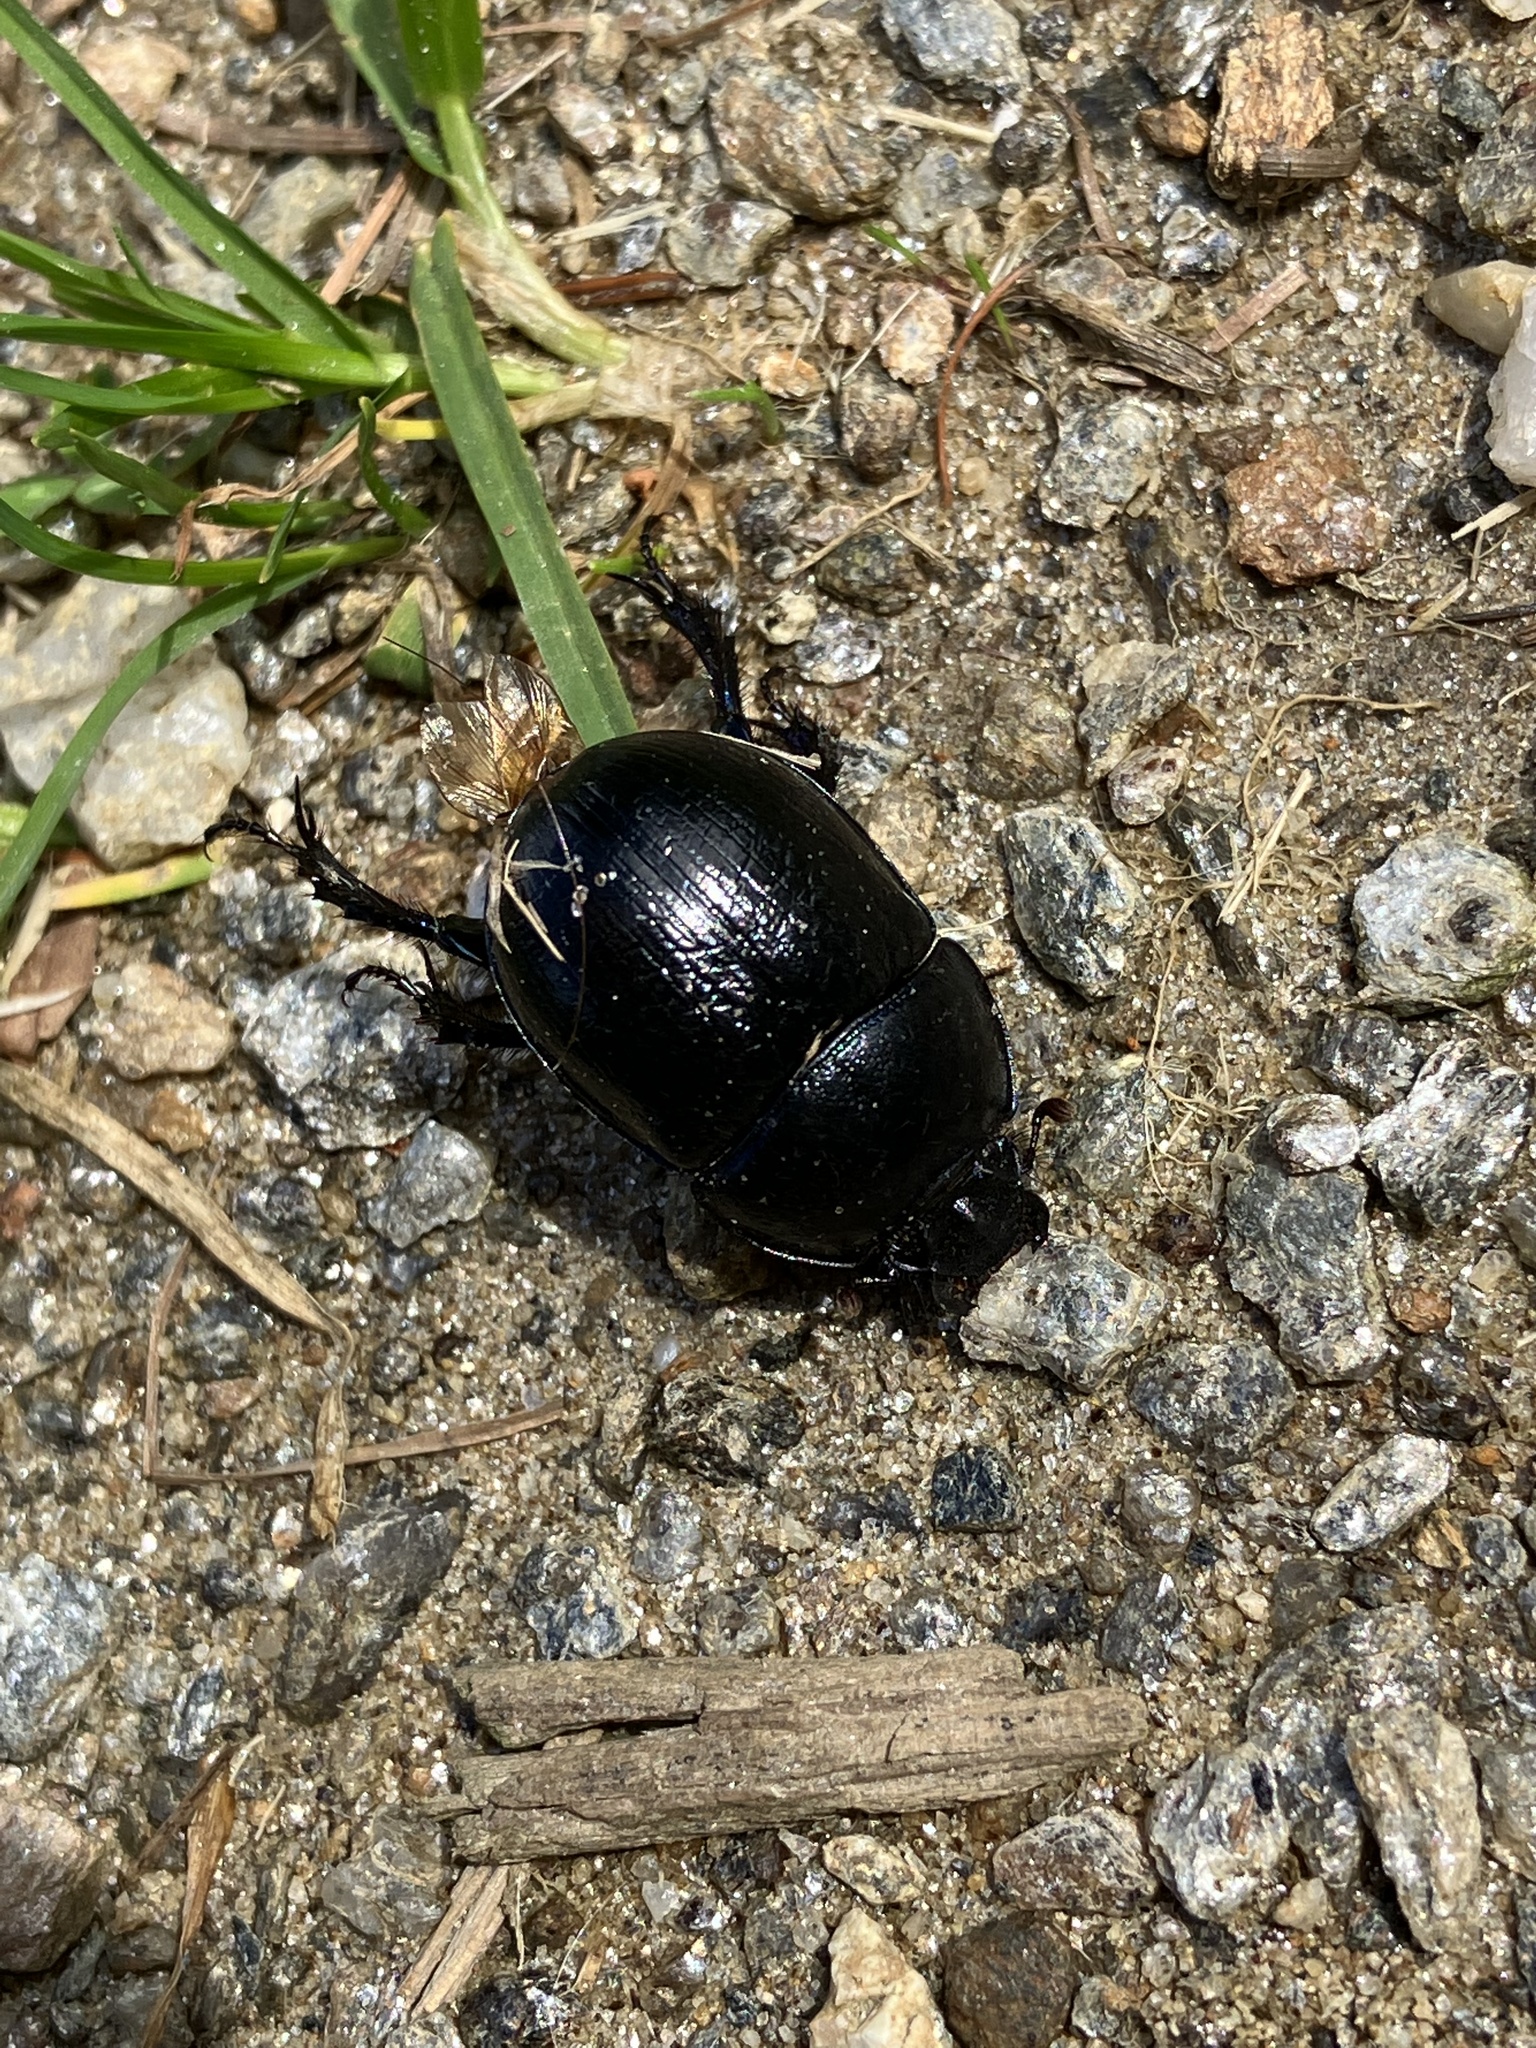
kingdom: Animalia
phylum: Arthropoda
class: Insecta
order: Coleoptera
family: Geotrupidae
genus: Anoplotrupes
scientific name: Anoplotrupes stercorosus
